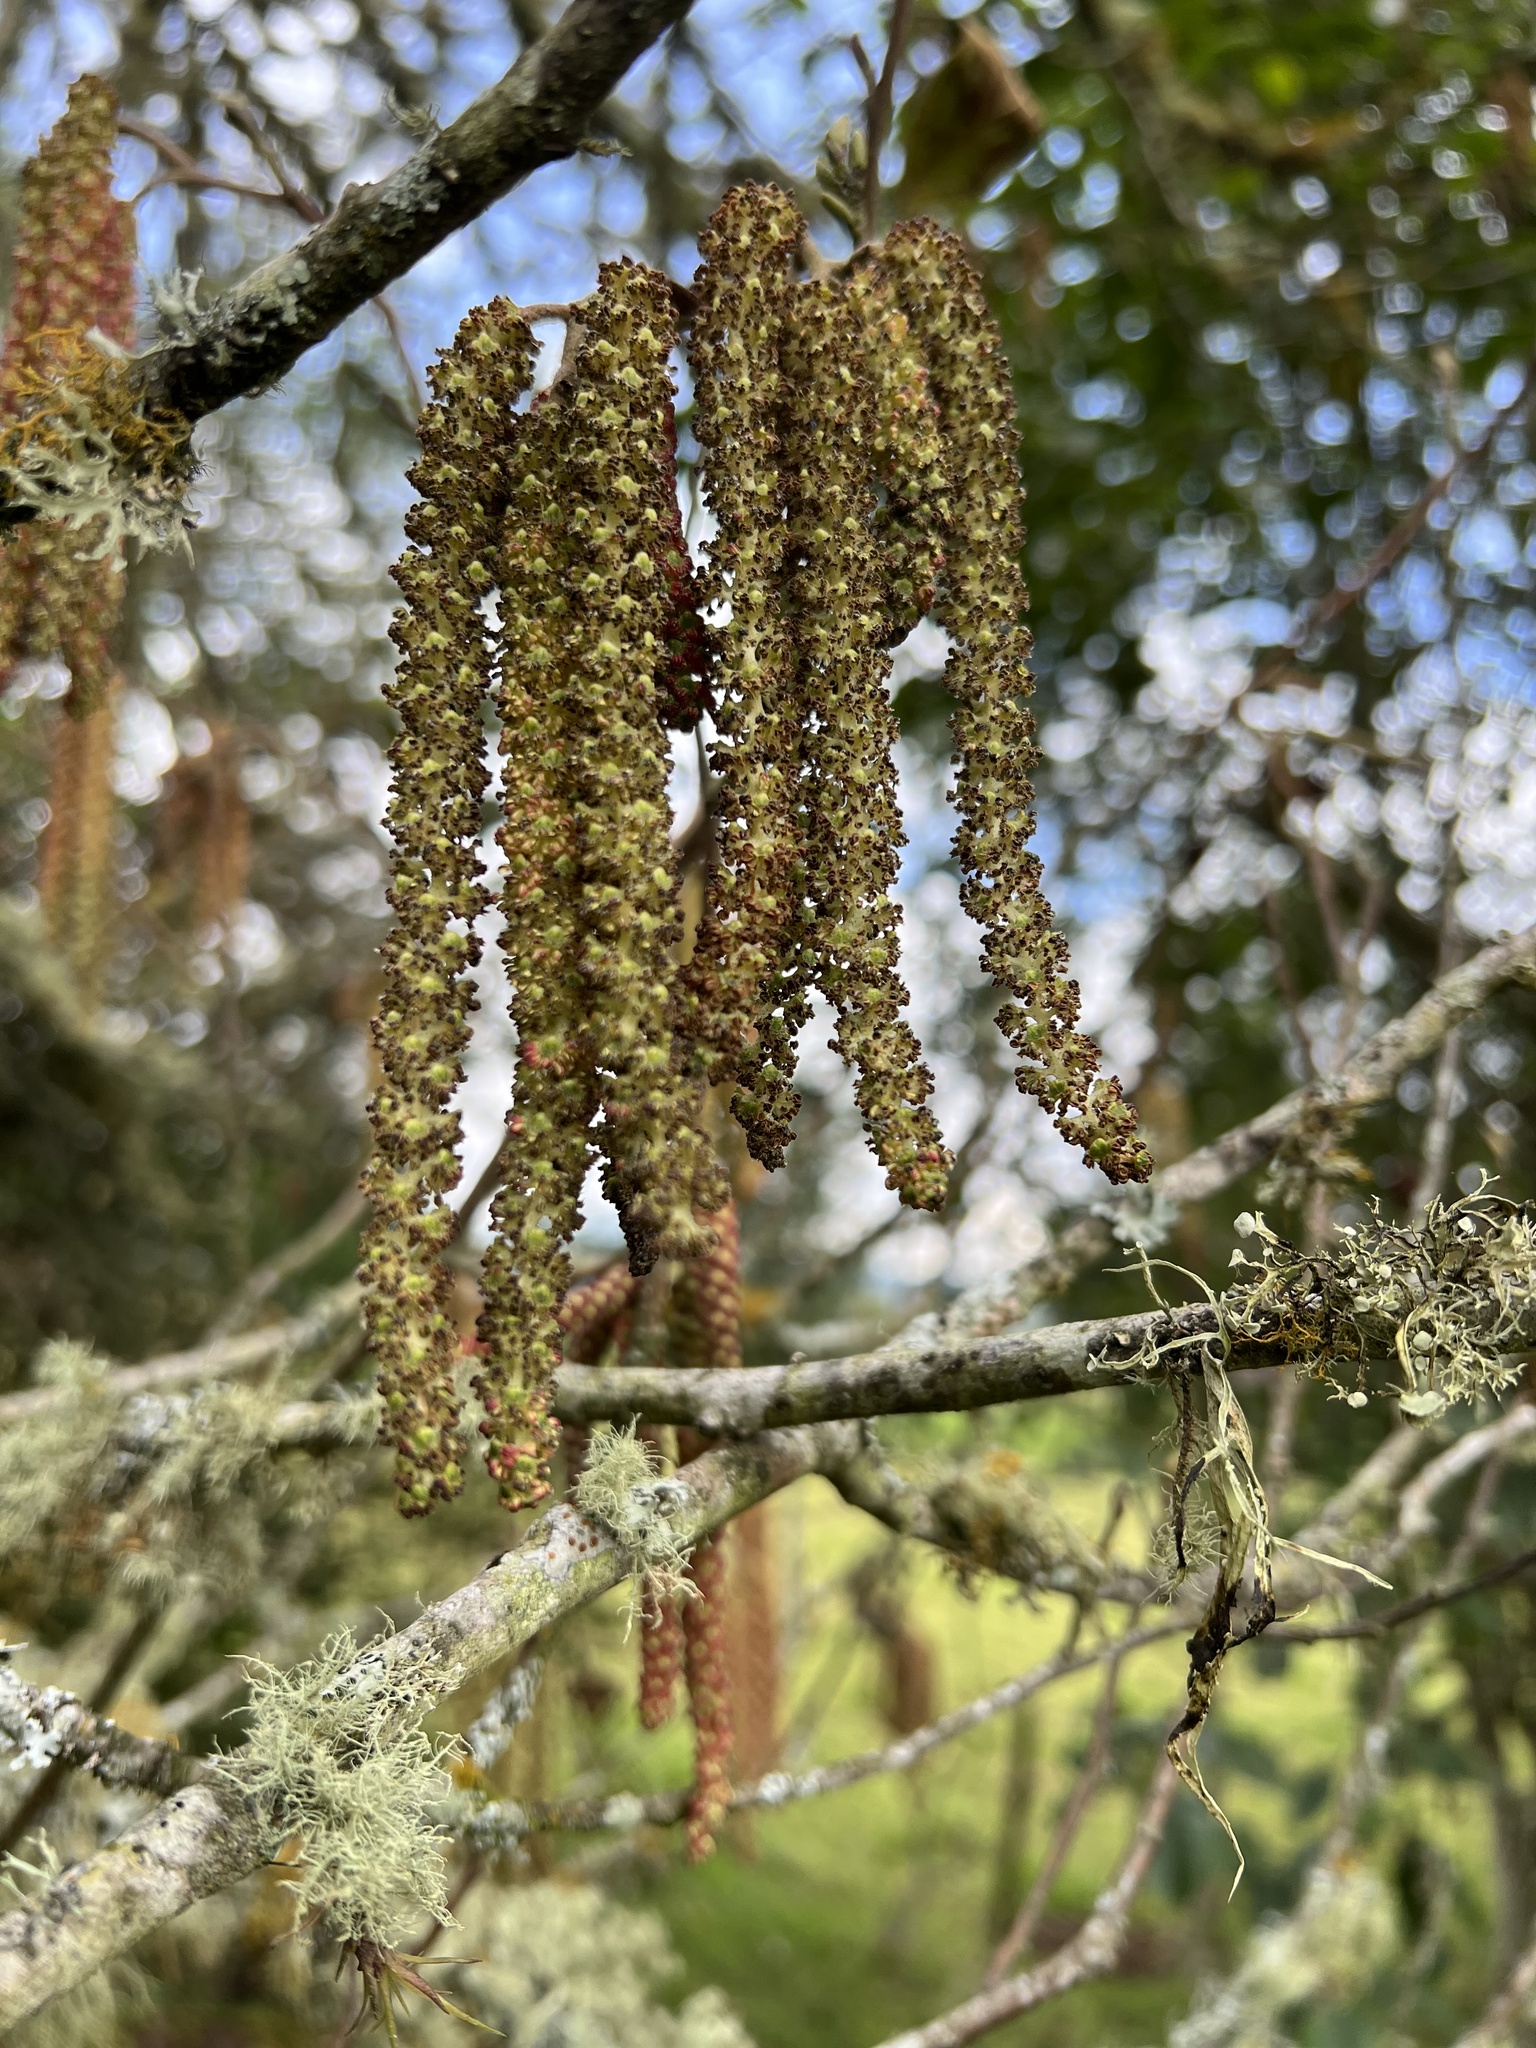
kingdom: Plantae
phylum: Tracheophyta
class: Magnoliopsida
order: Fagales
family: Betulaceae
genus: Alnus
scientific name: Alnus acuminata
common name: Alder
